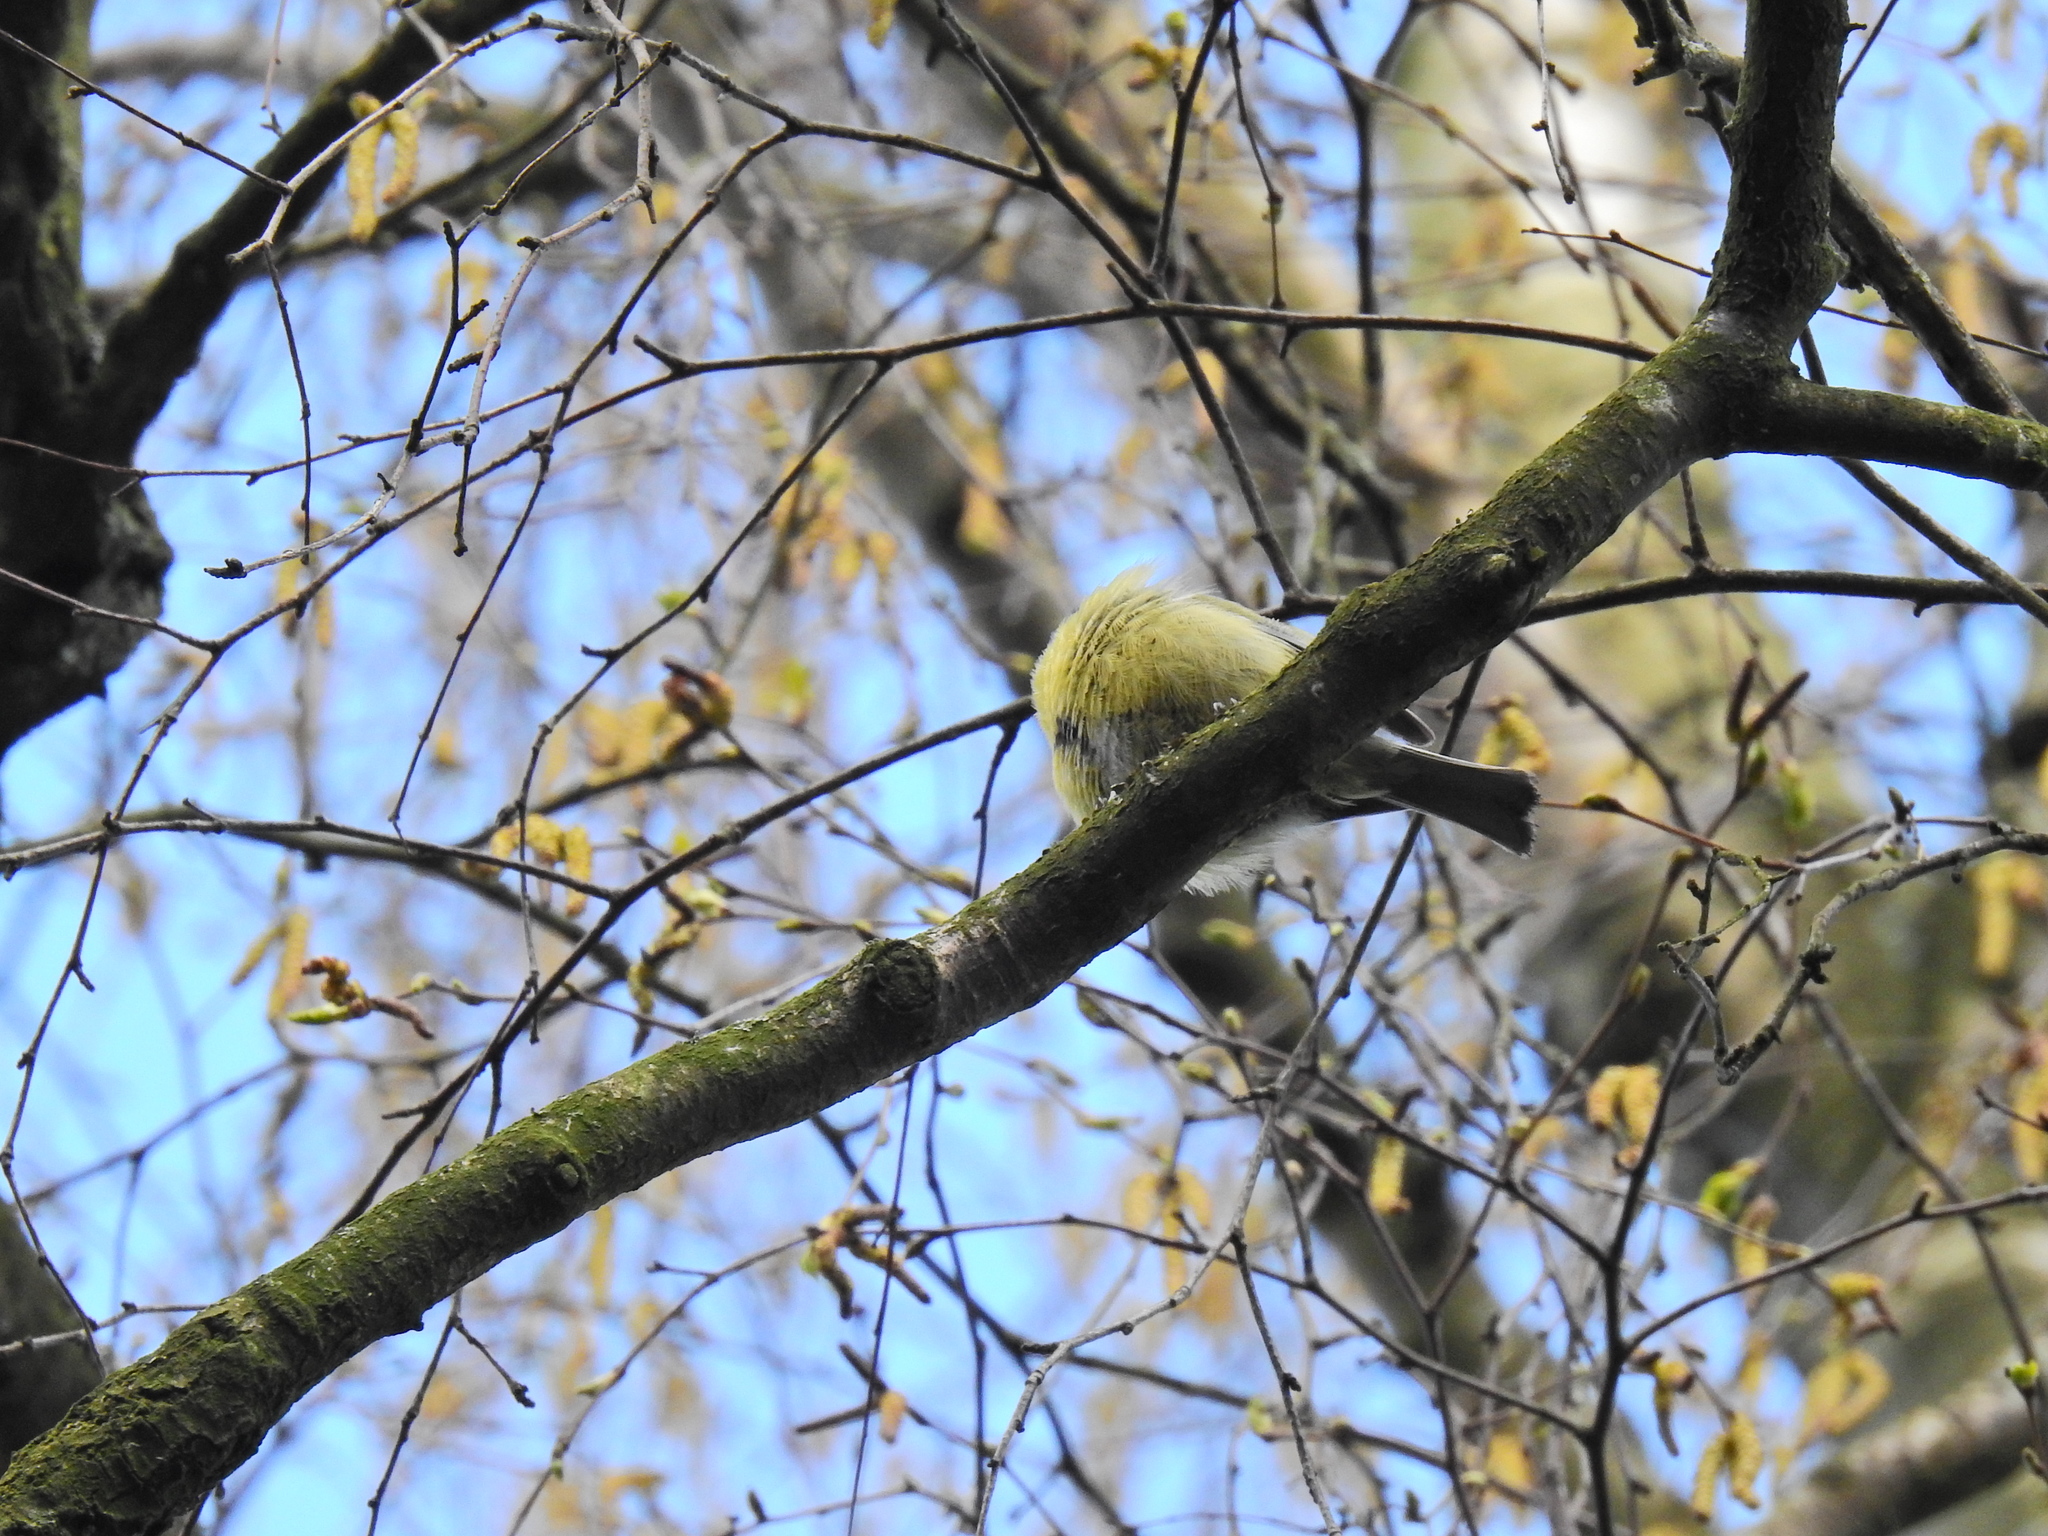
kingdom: Animalia
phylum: Chordata
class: Aves
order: Passeriformes
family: Paridae
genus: Cyanistes
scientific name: Cyanistes caeruleus
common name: Eurasian blue tit
